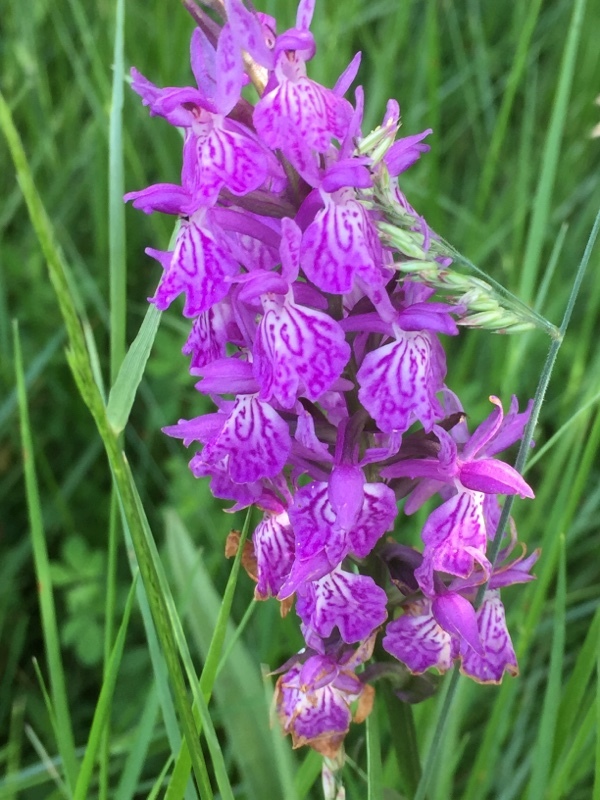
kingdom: Plantae
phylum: Tracheophyta
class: Liliopsida
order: Asparagales
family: Orchidaceae
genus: Dactylorhiza
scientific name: Dactylorhiza maculata
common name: Heath spotted-orchid
